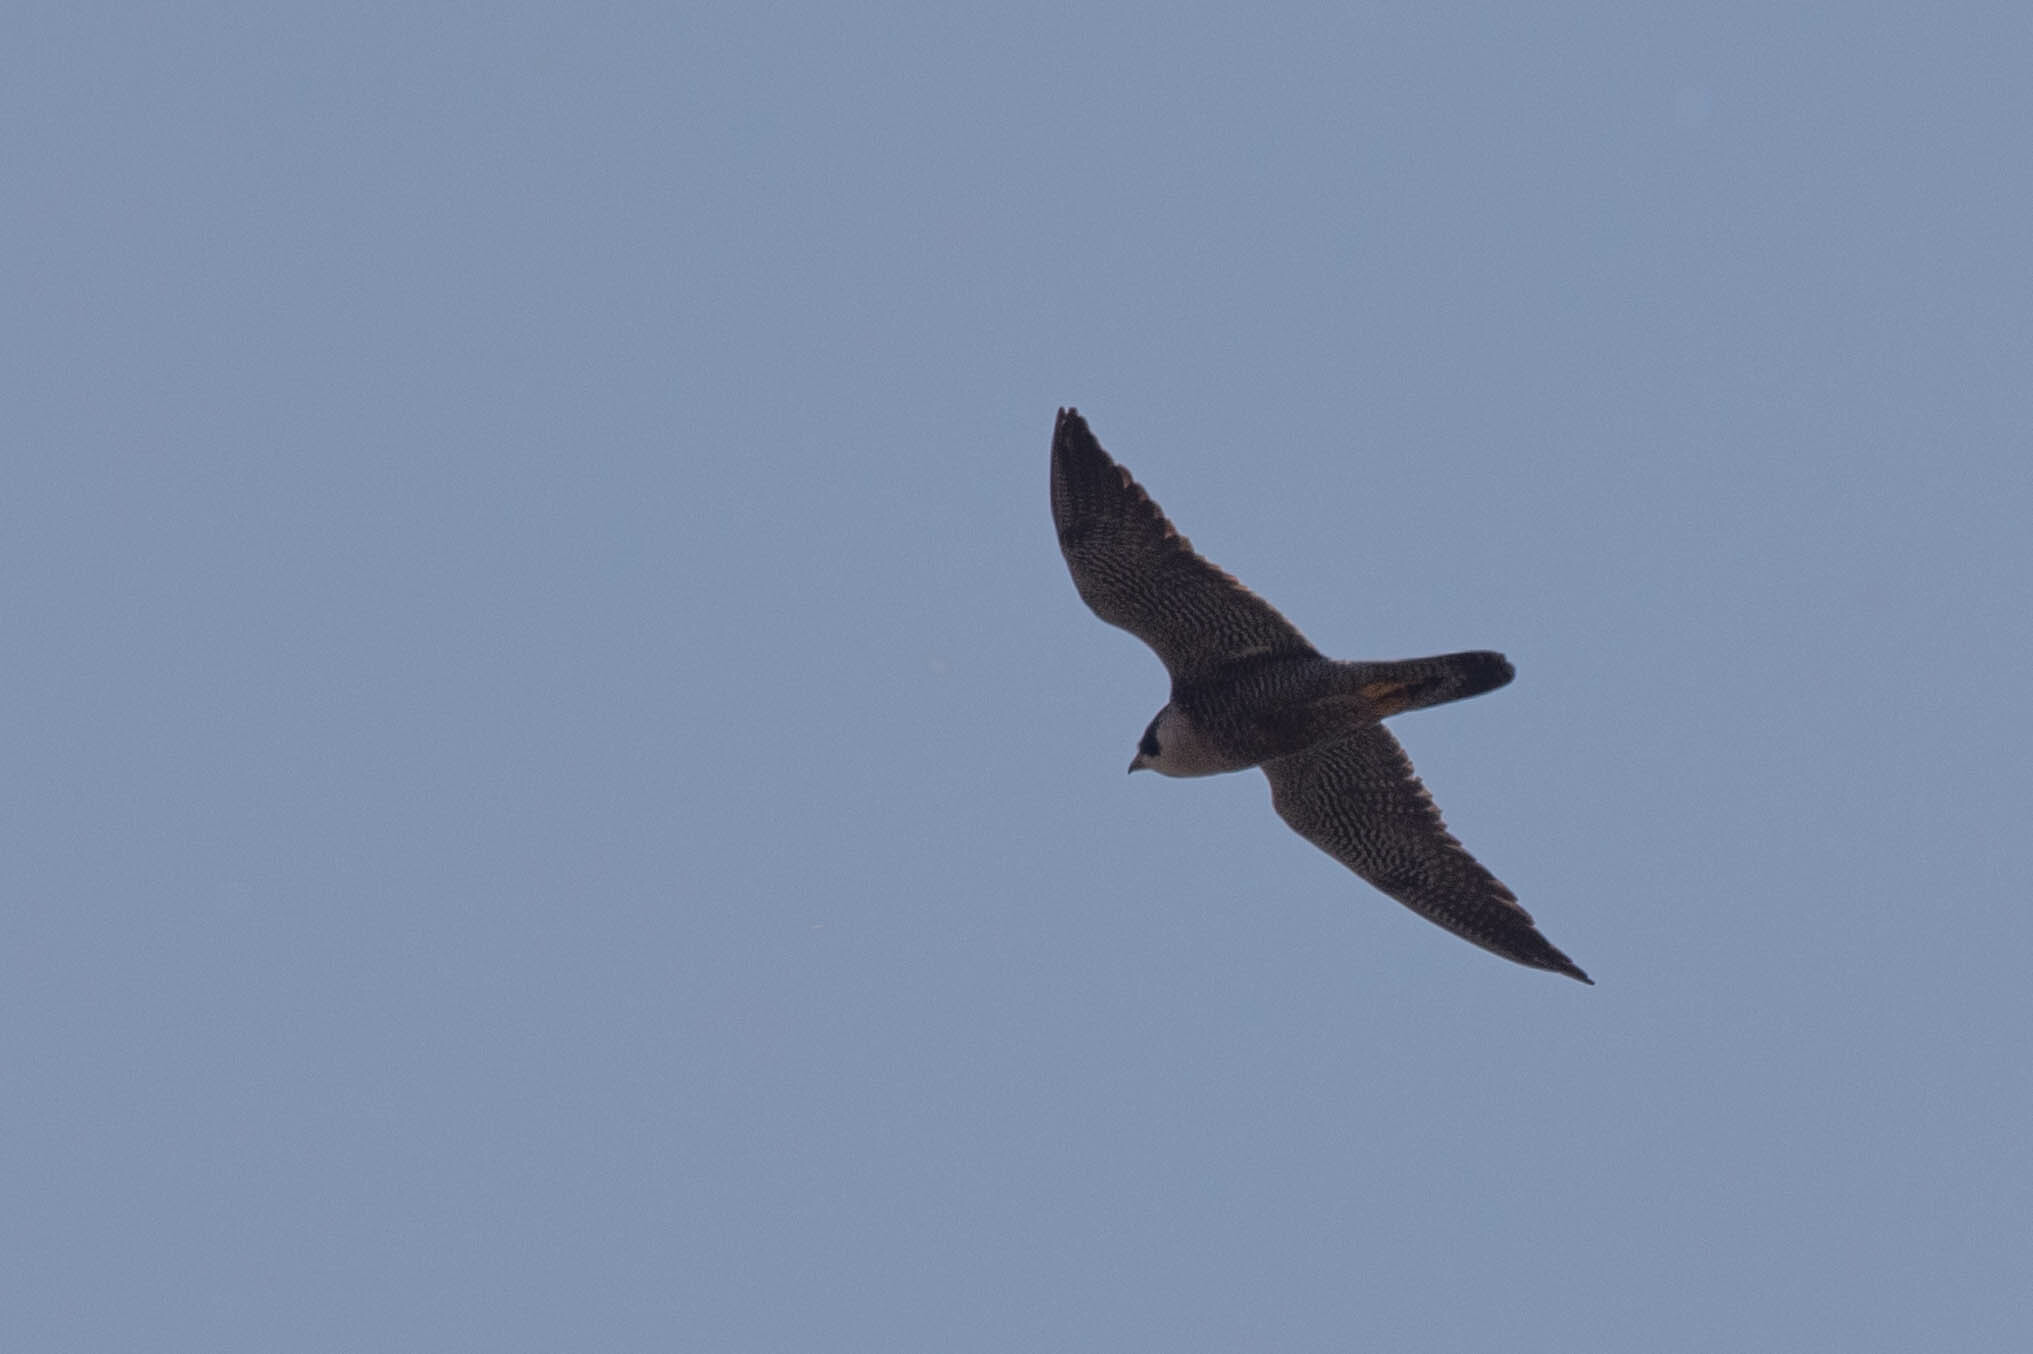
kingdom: Animalia
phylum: Chordata
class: Aves
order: Falconiformes
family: Falconidae
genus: Falco
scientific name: Falco peregrinus
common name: Peregrine falcon
